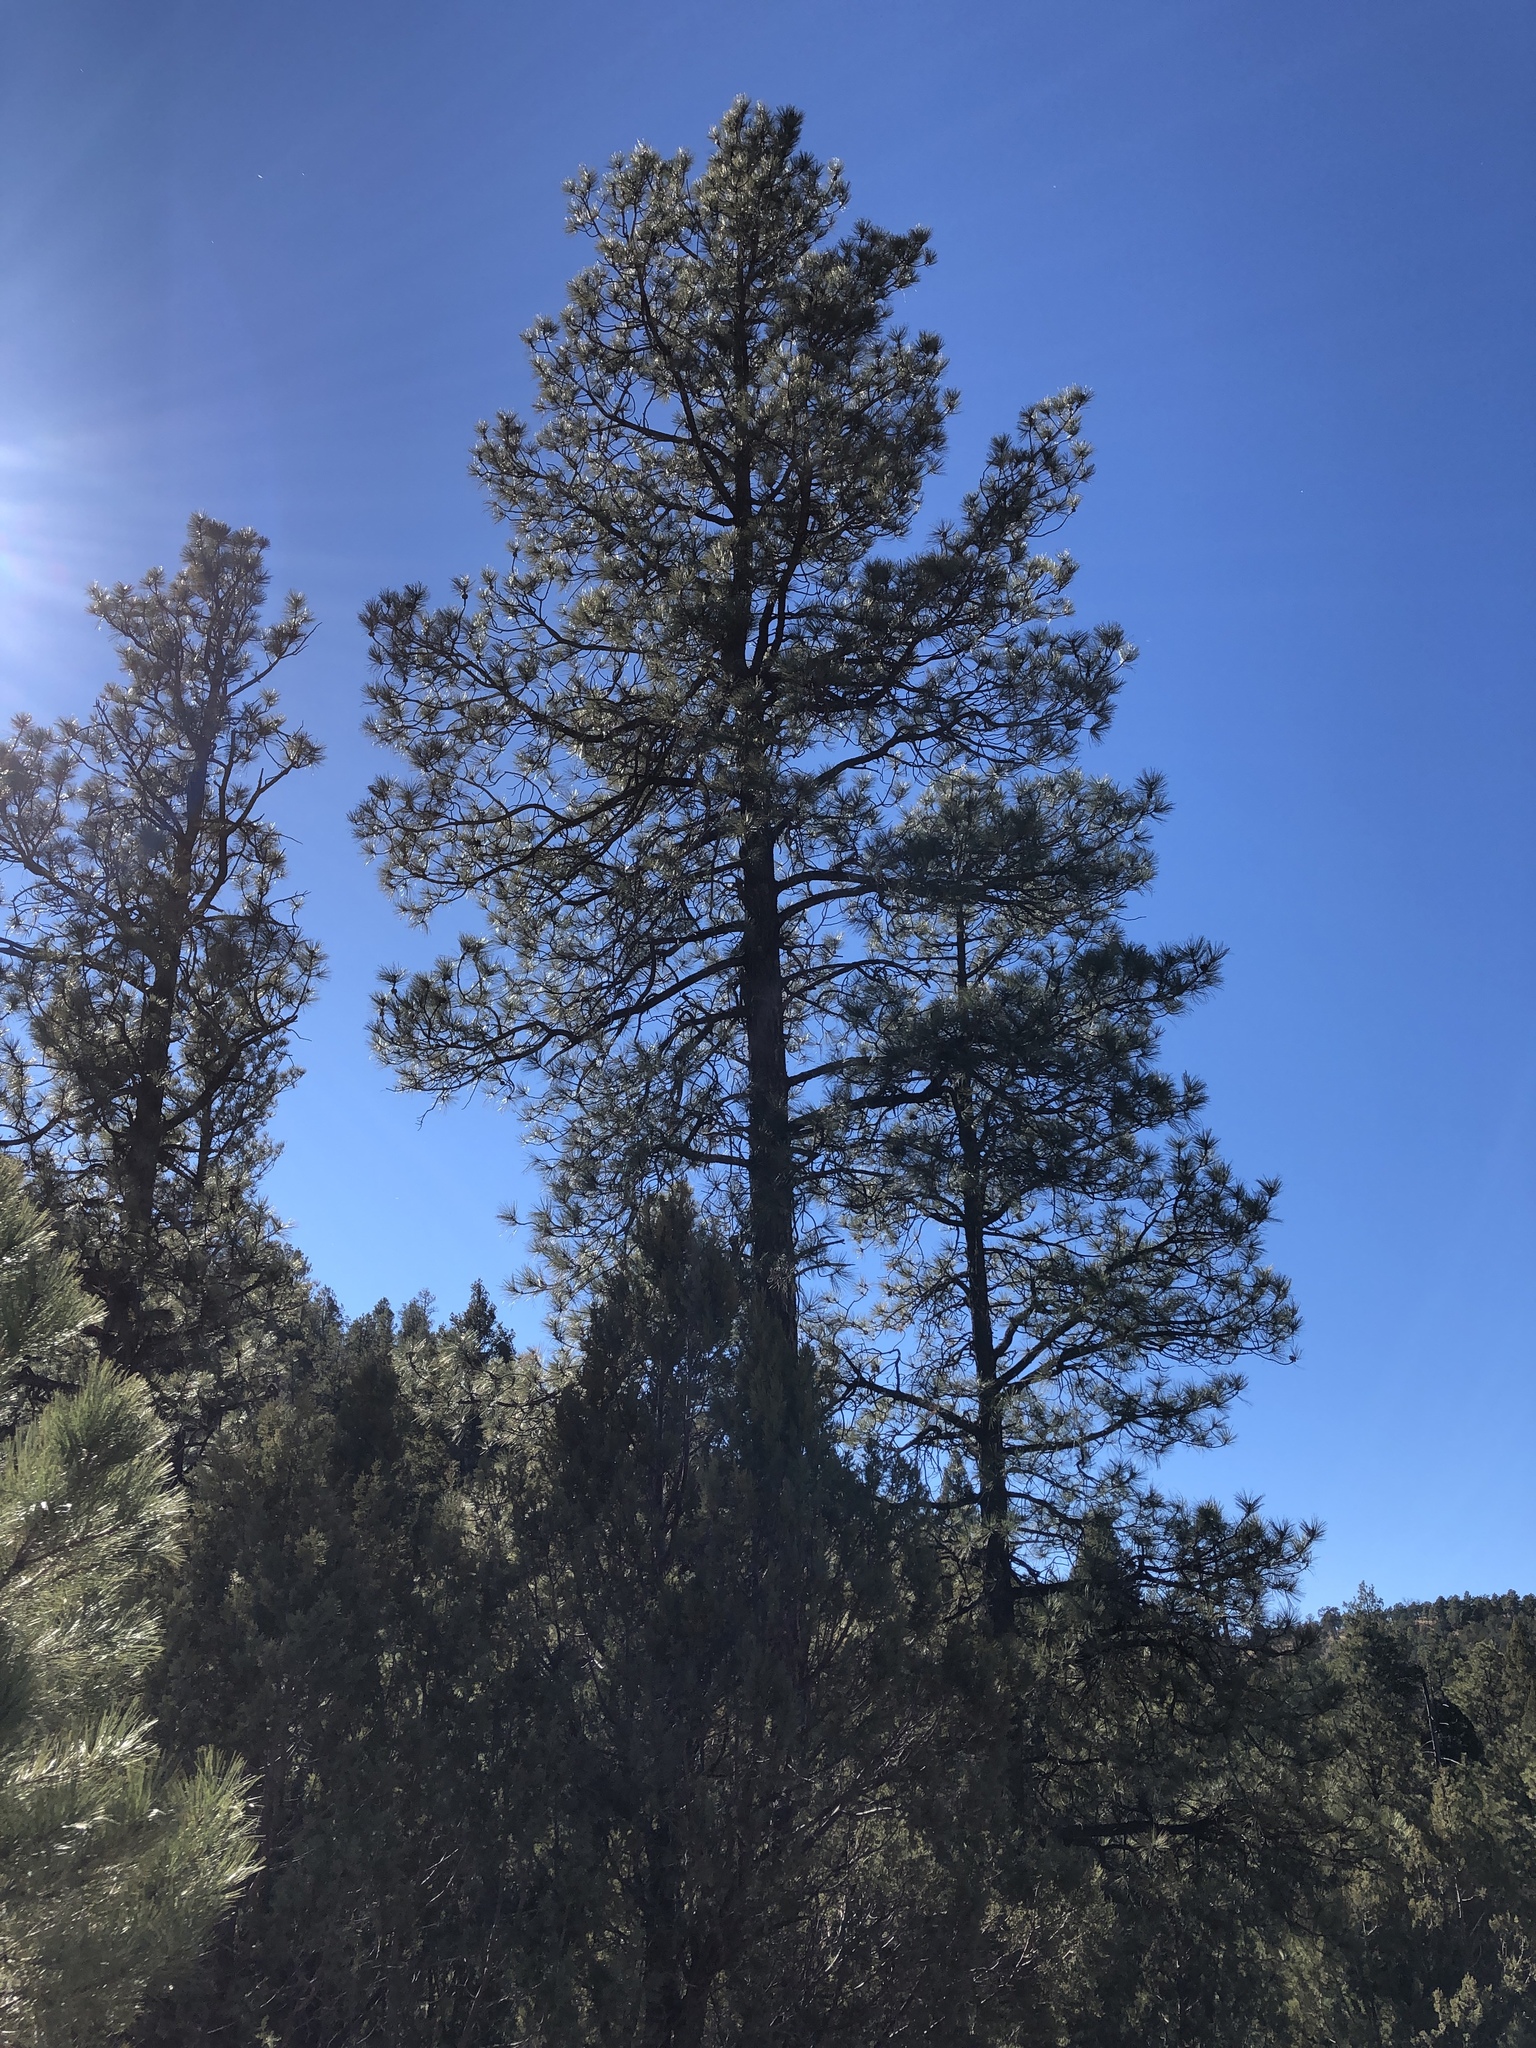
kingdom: Plantae
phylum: Tracheophyta
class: Pinopsida
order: Pinales
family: Pinaceae
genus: Pinus
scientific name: Pinus ponderosa
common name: Western yellow-pine
